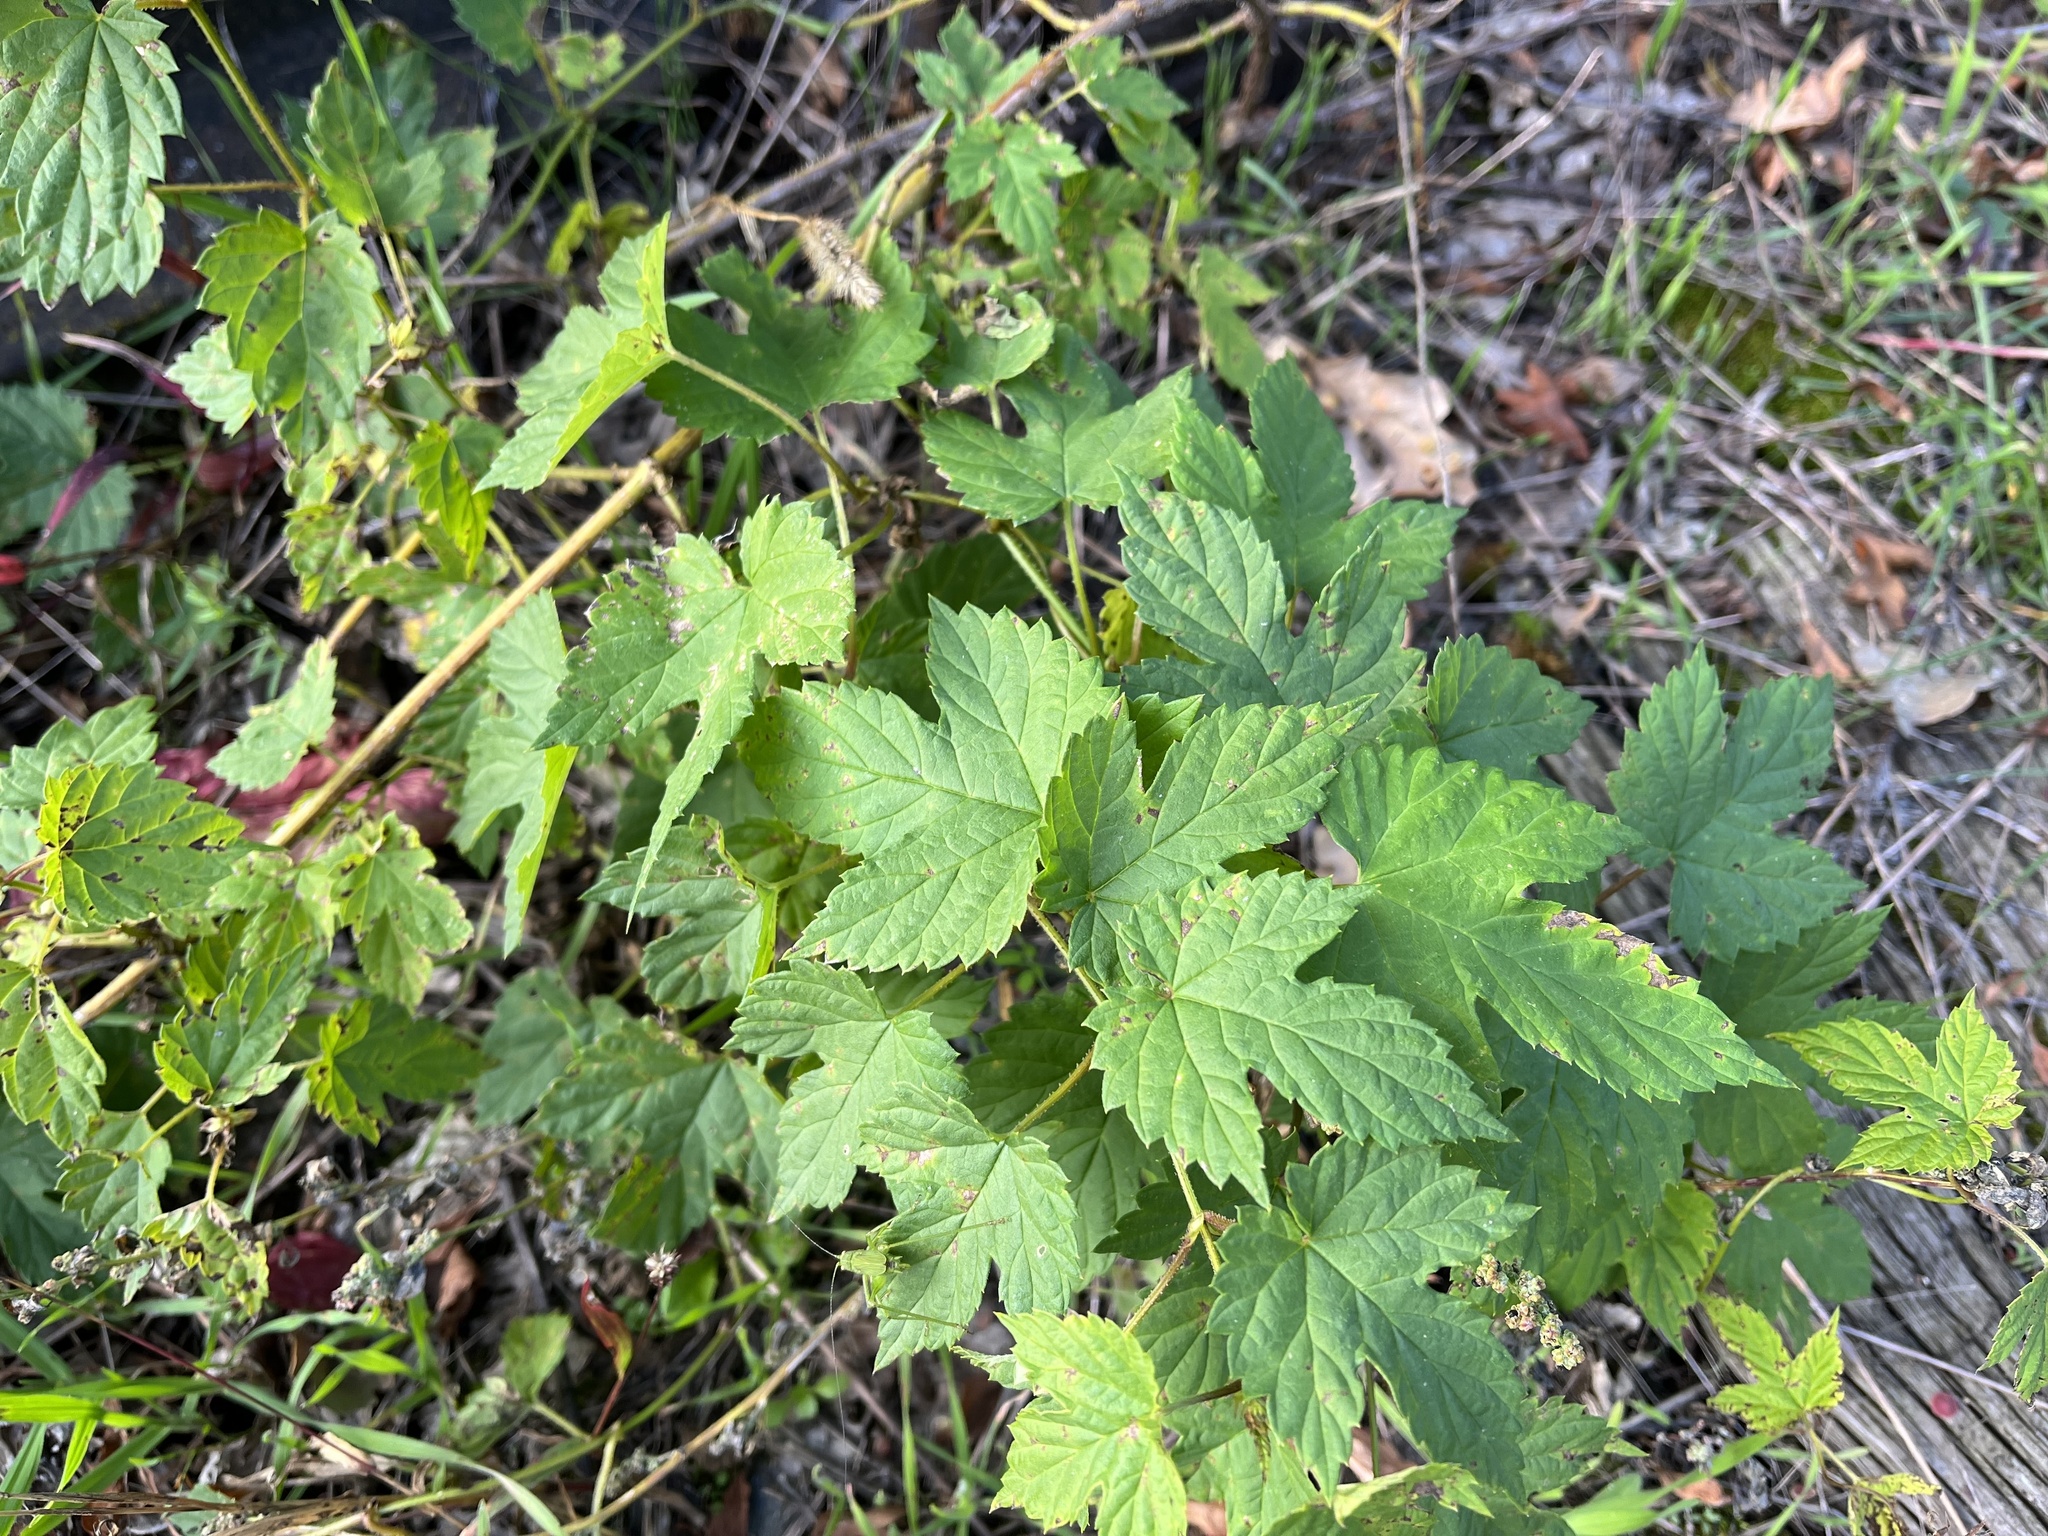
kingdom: Plantae
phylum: Tracheophyta
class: Magnoliopsida
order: Rosales
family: Cannabaceae
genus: Humulus
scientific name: Humulus lupulus
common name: Hop
